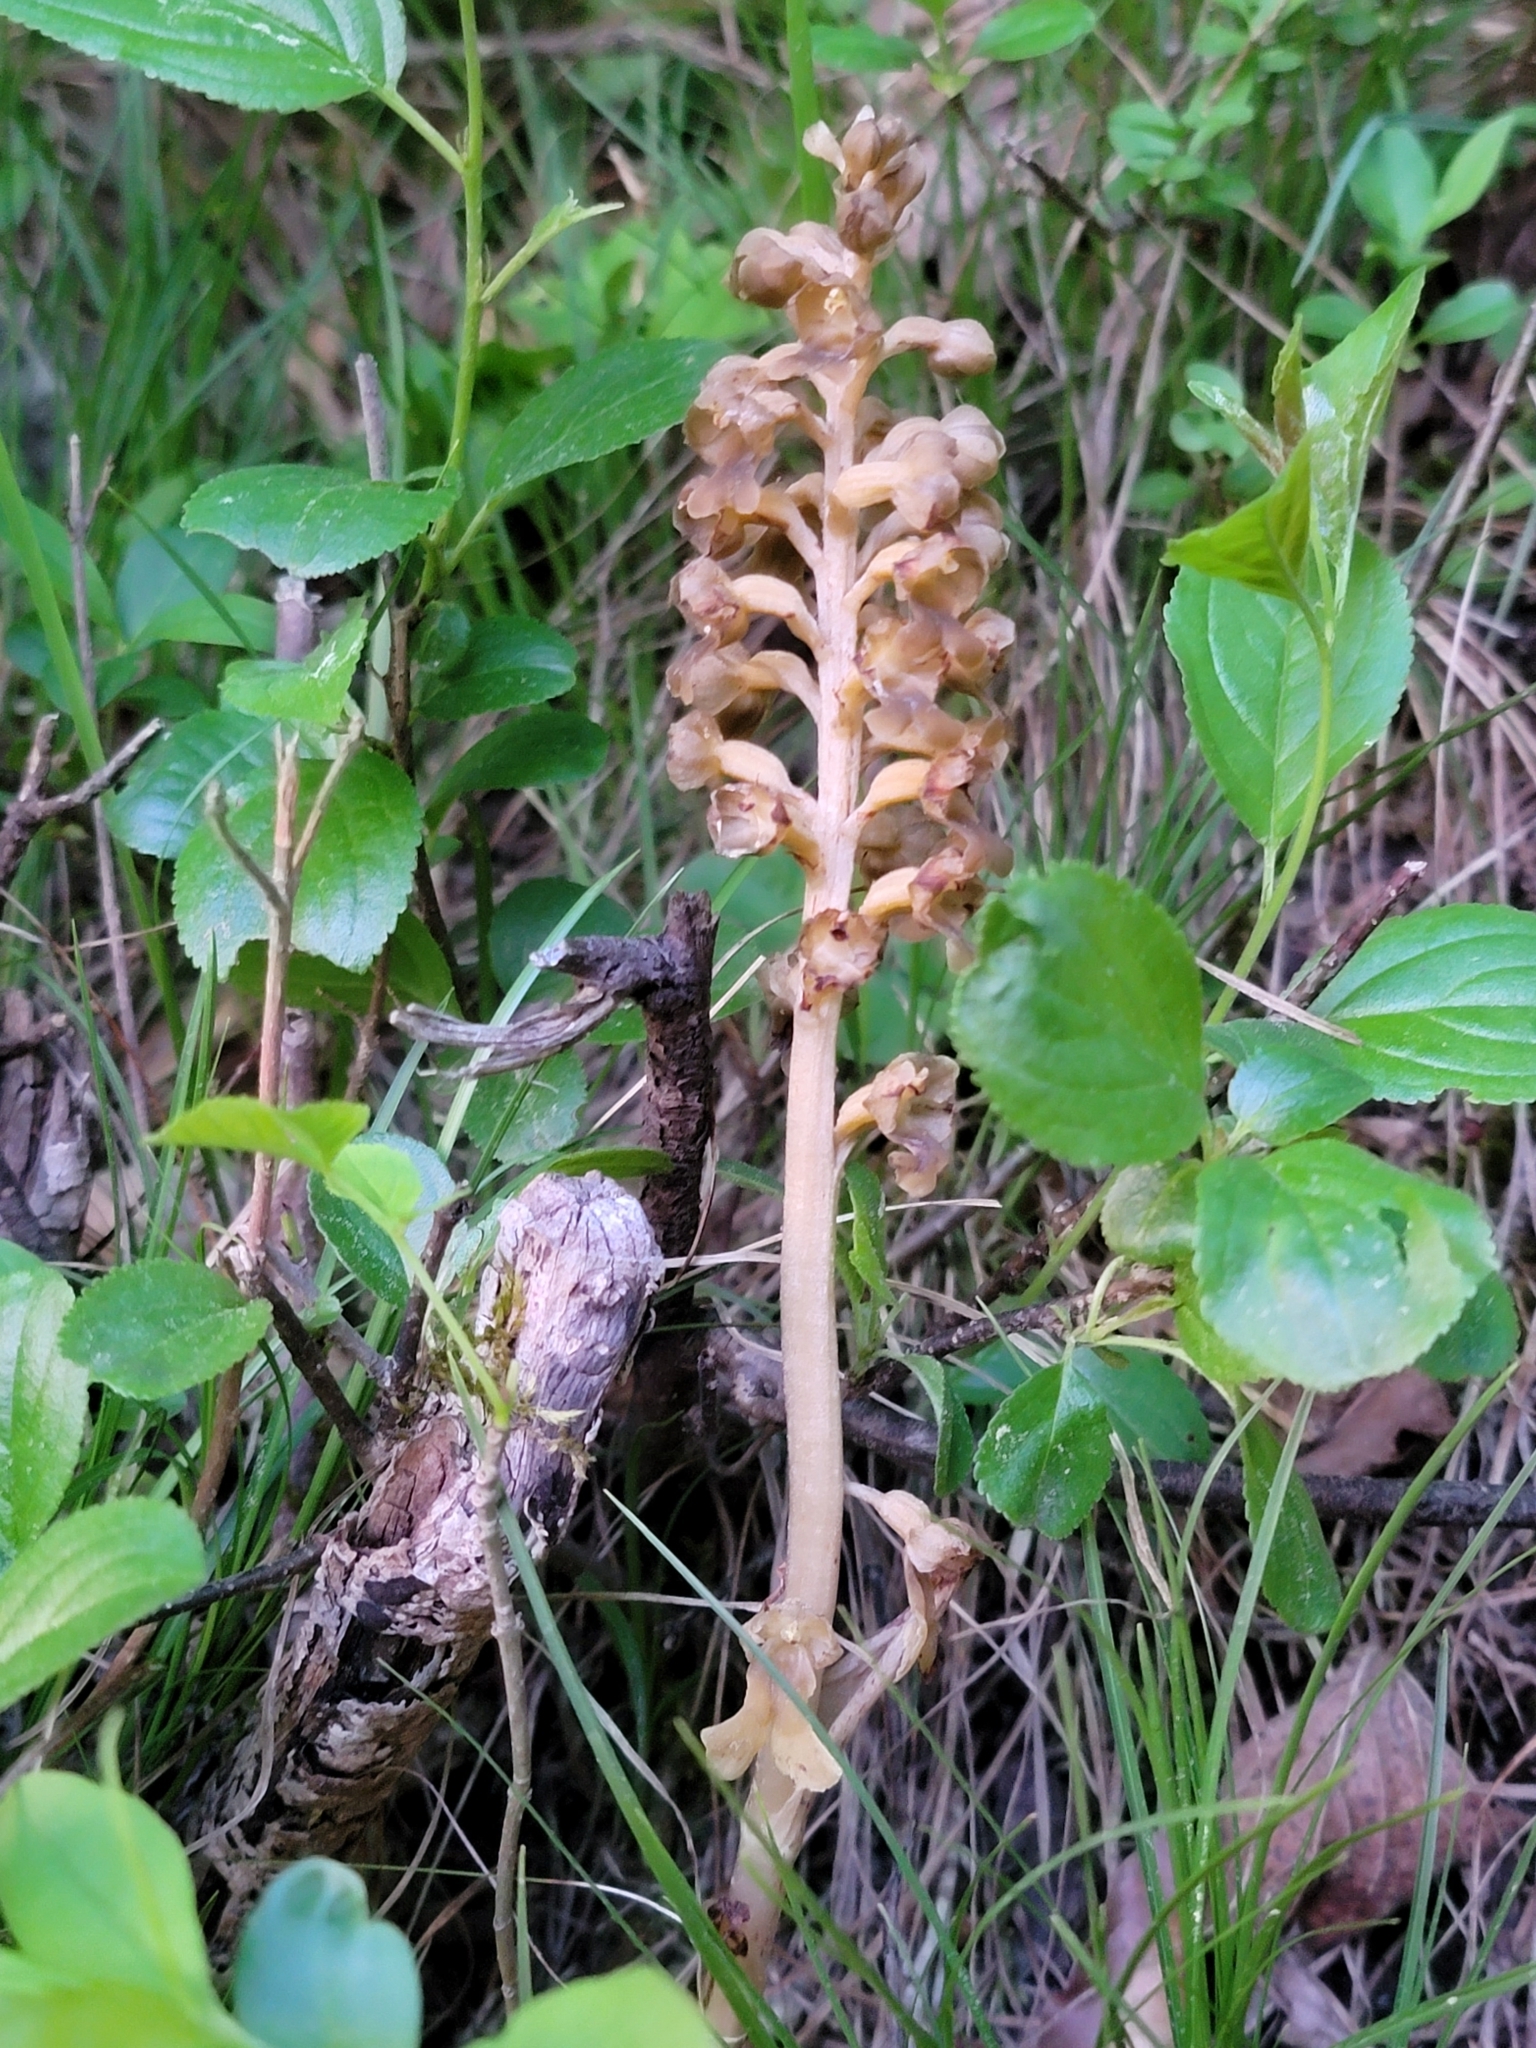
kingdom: Plantae
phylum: Tracheophyta
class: Liliopsida
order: Asparagales
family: Orchidaceae
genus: Neottia
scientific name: Neottia nidus-avis
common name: Bird's-nest orchid
